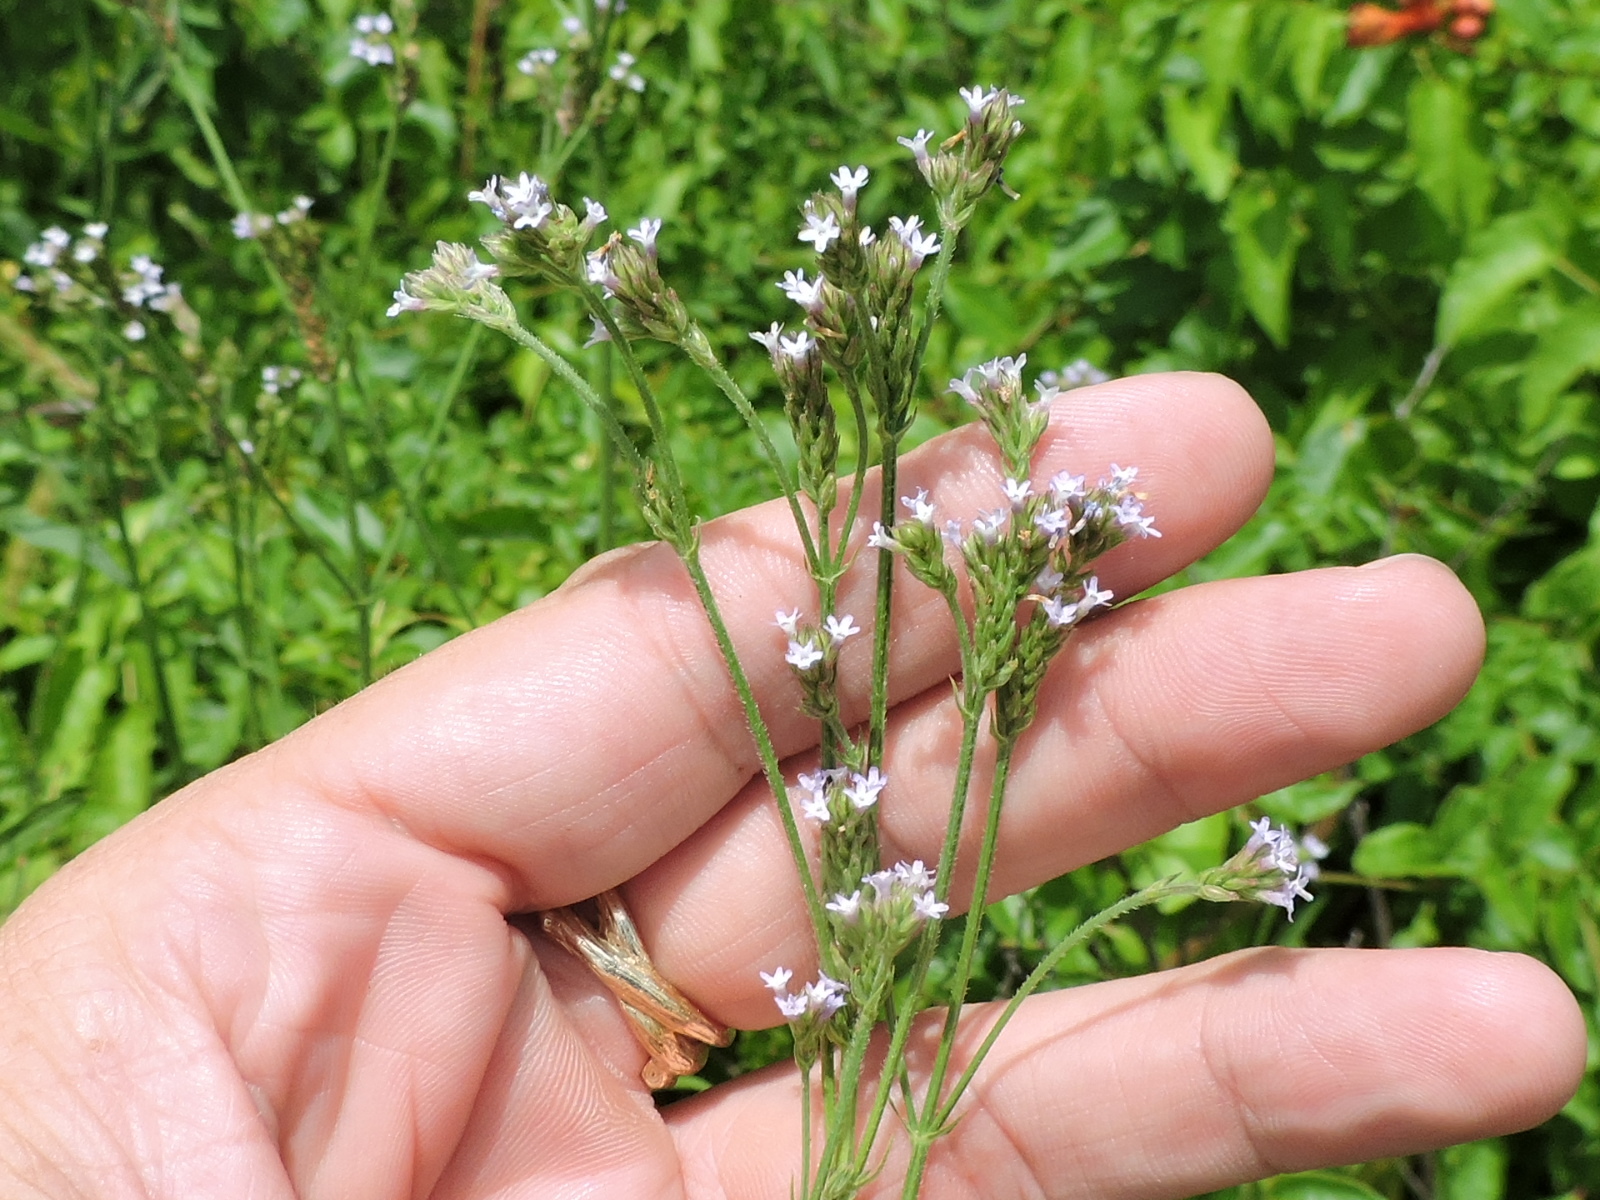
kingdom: Plantae
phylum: Tracheophyta
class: Magnoliopsida
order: Lamiales
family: Verbenaceae
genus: Verbena
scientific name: Verbena brasiliensis
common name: Brazilian vervain
